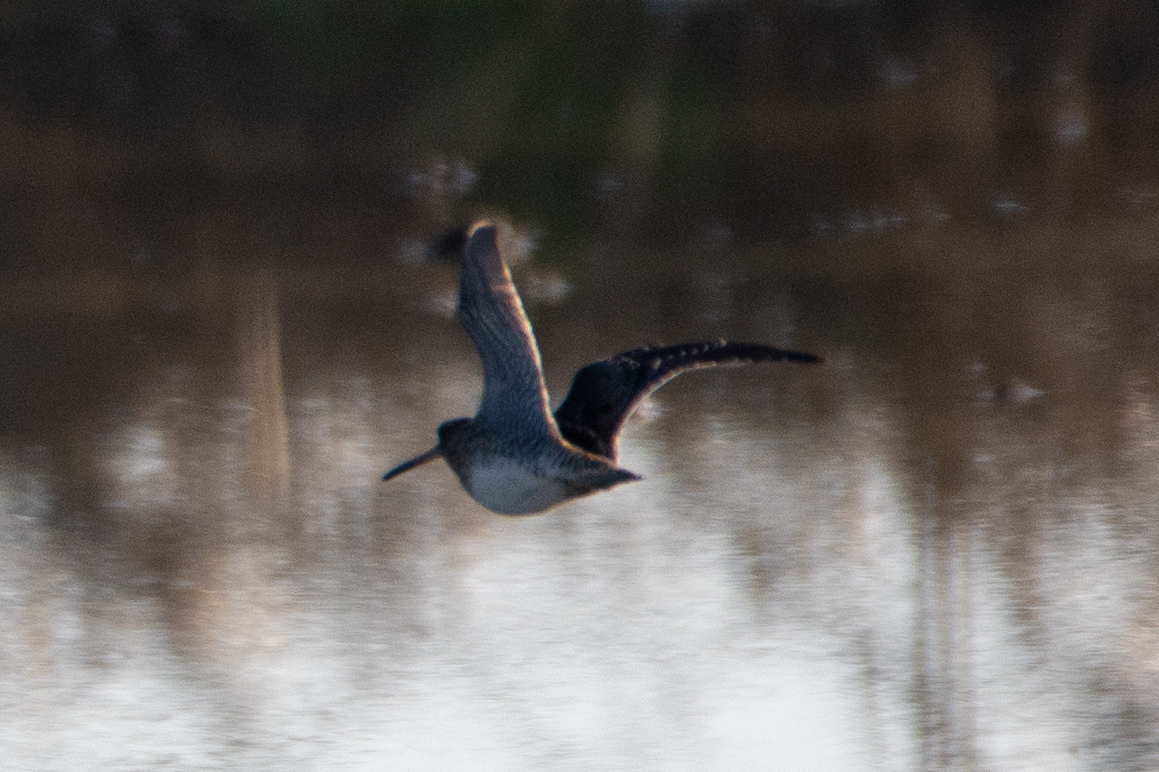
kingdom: Animalia
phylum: Chordata
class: Aves
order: Charadriiformes
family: Scolopacidae
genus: Gallinago
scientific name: Gallinago delicata
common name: Wilson's snipe
